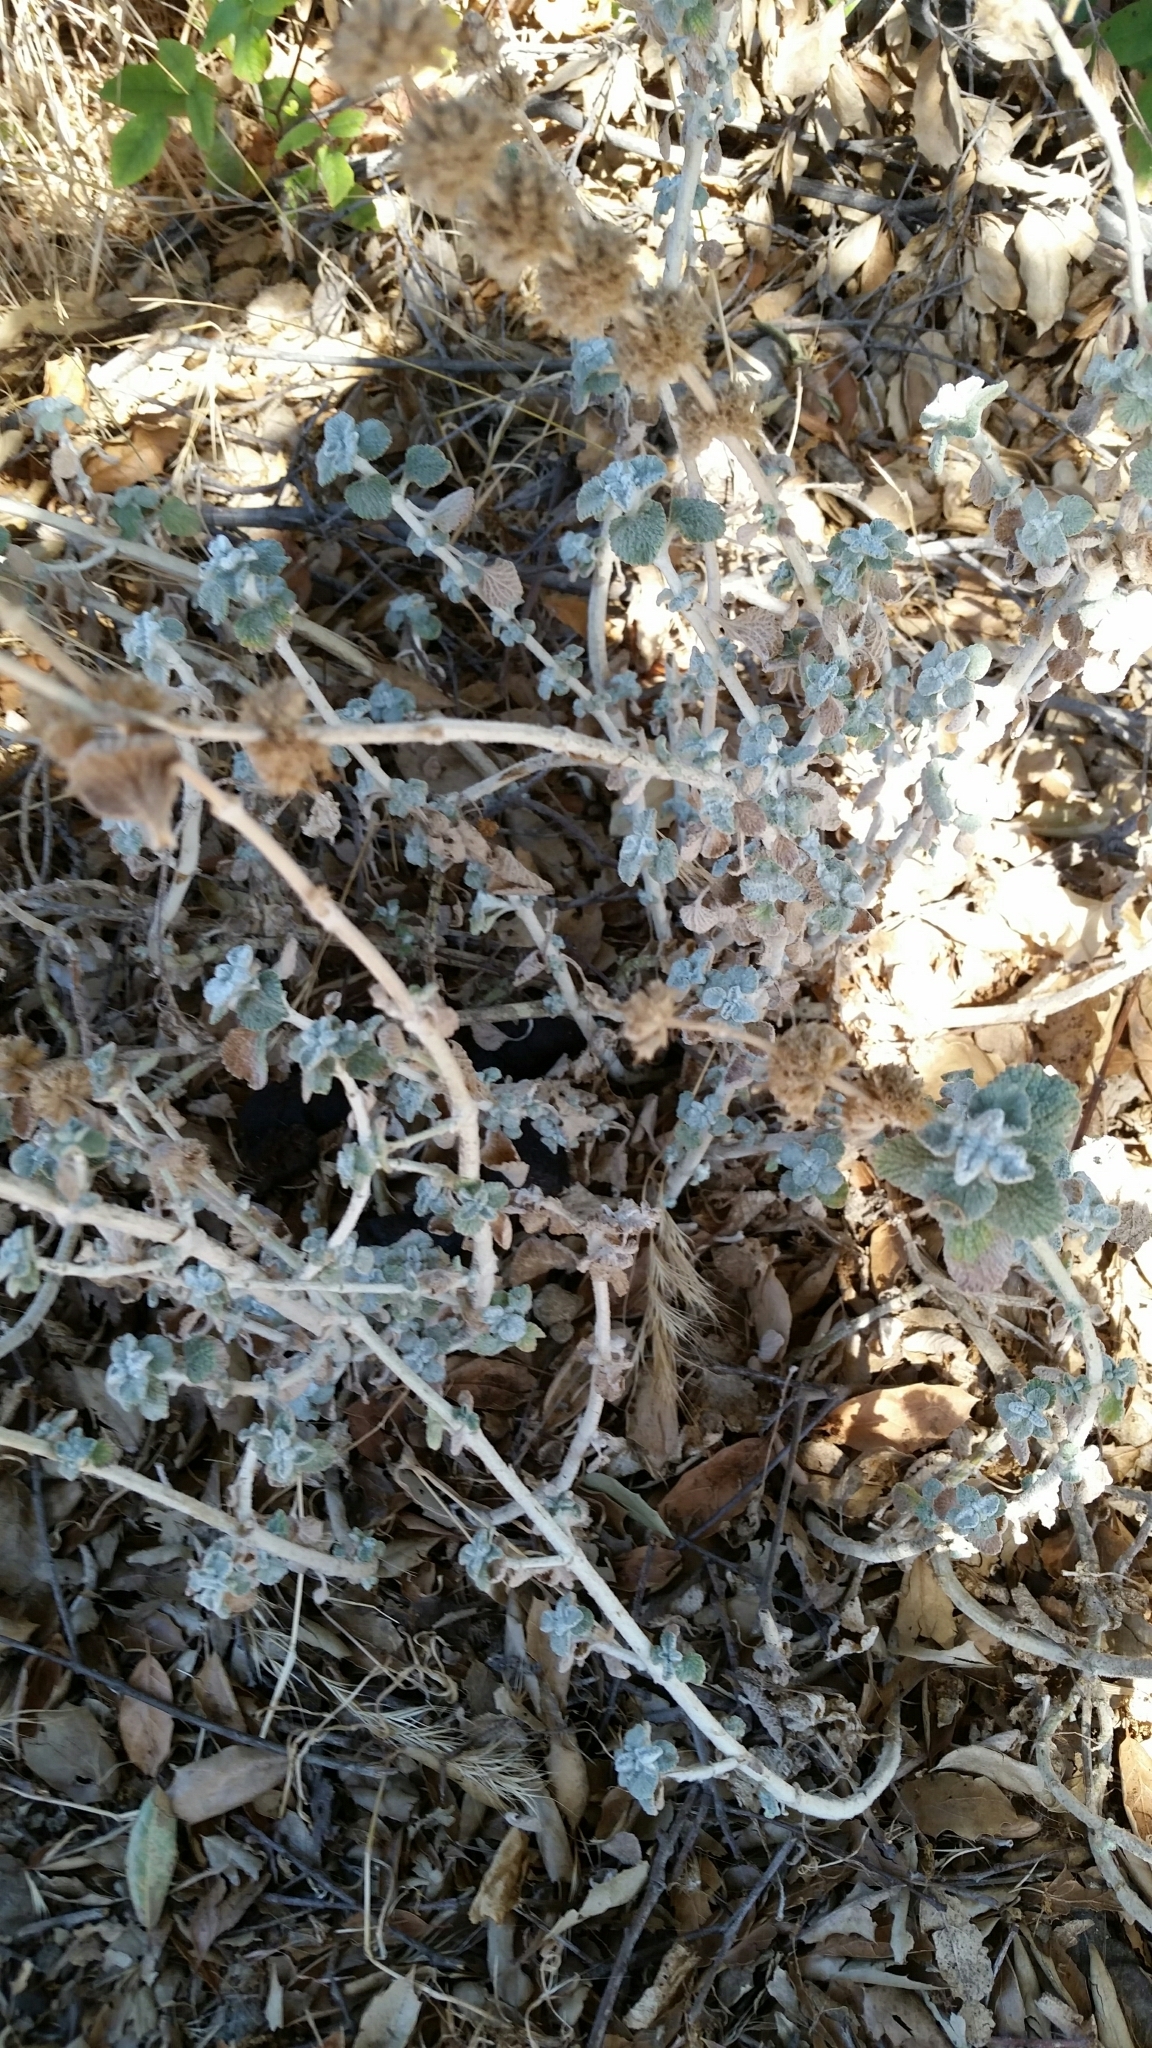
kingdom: Plantae
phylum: Tracheophyta
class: Magnoliopsida
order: Lamiales
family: Lamiaceae
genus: Marrubium
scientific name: Marrubium vulgare
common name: Horehound
